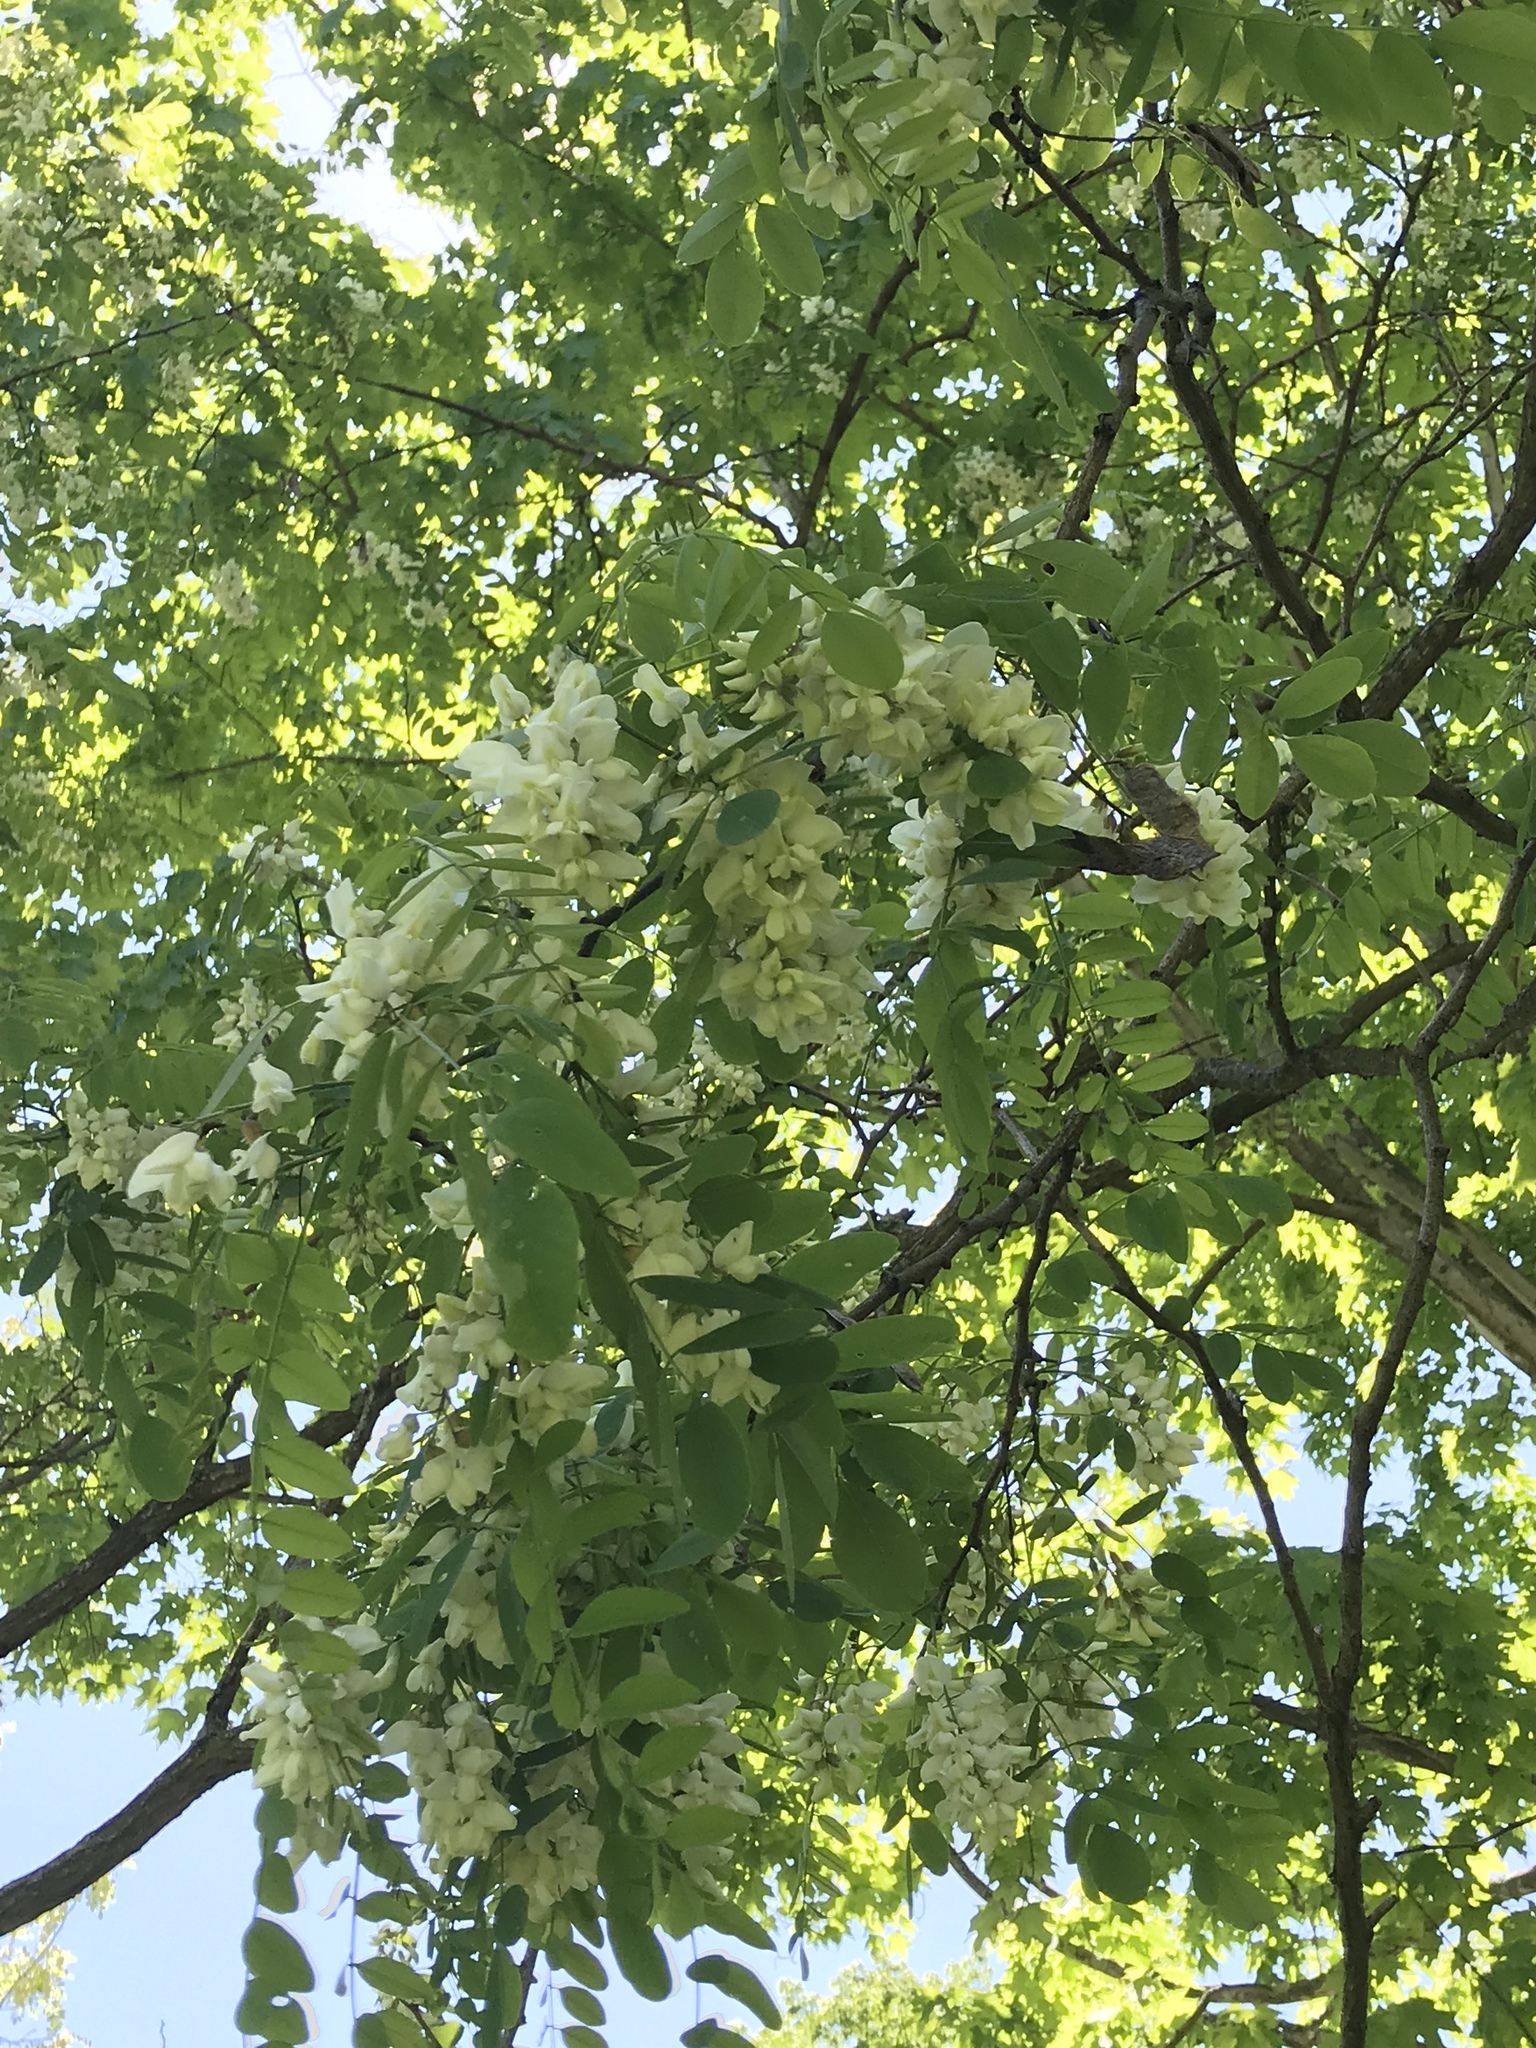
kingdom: Plantae
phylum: Tracheophyta
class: Magnoliopsida
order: Fabales
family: Fabaceae
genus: Robinia
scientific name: Robinia pseudoacacia
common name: Black locust
